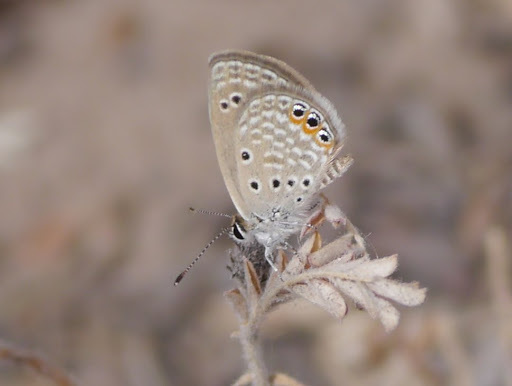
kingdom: Animalia
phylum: Arthropoda
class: Insecta
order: Lepidoptera
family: Lycaenidae
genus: Freyeria
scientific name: Freyeria trochylus
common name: Grass jewel
